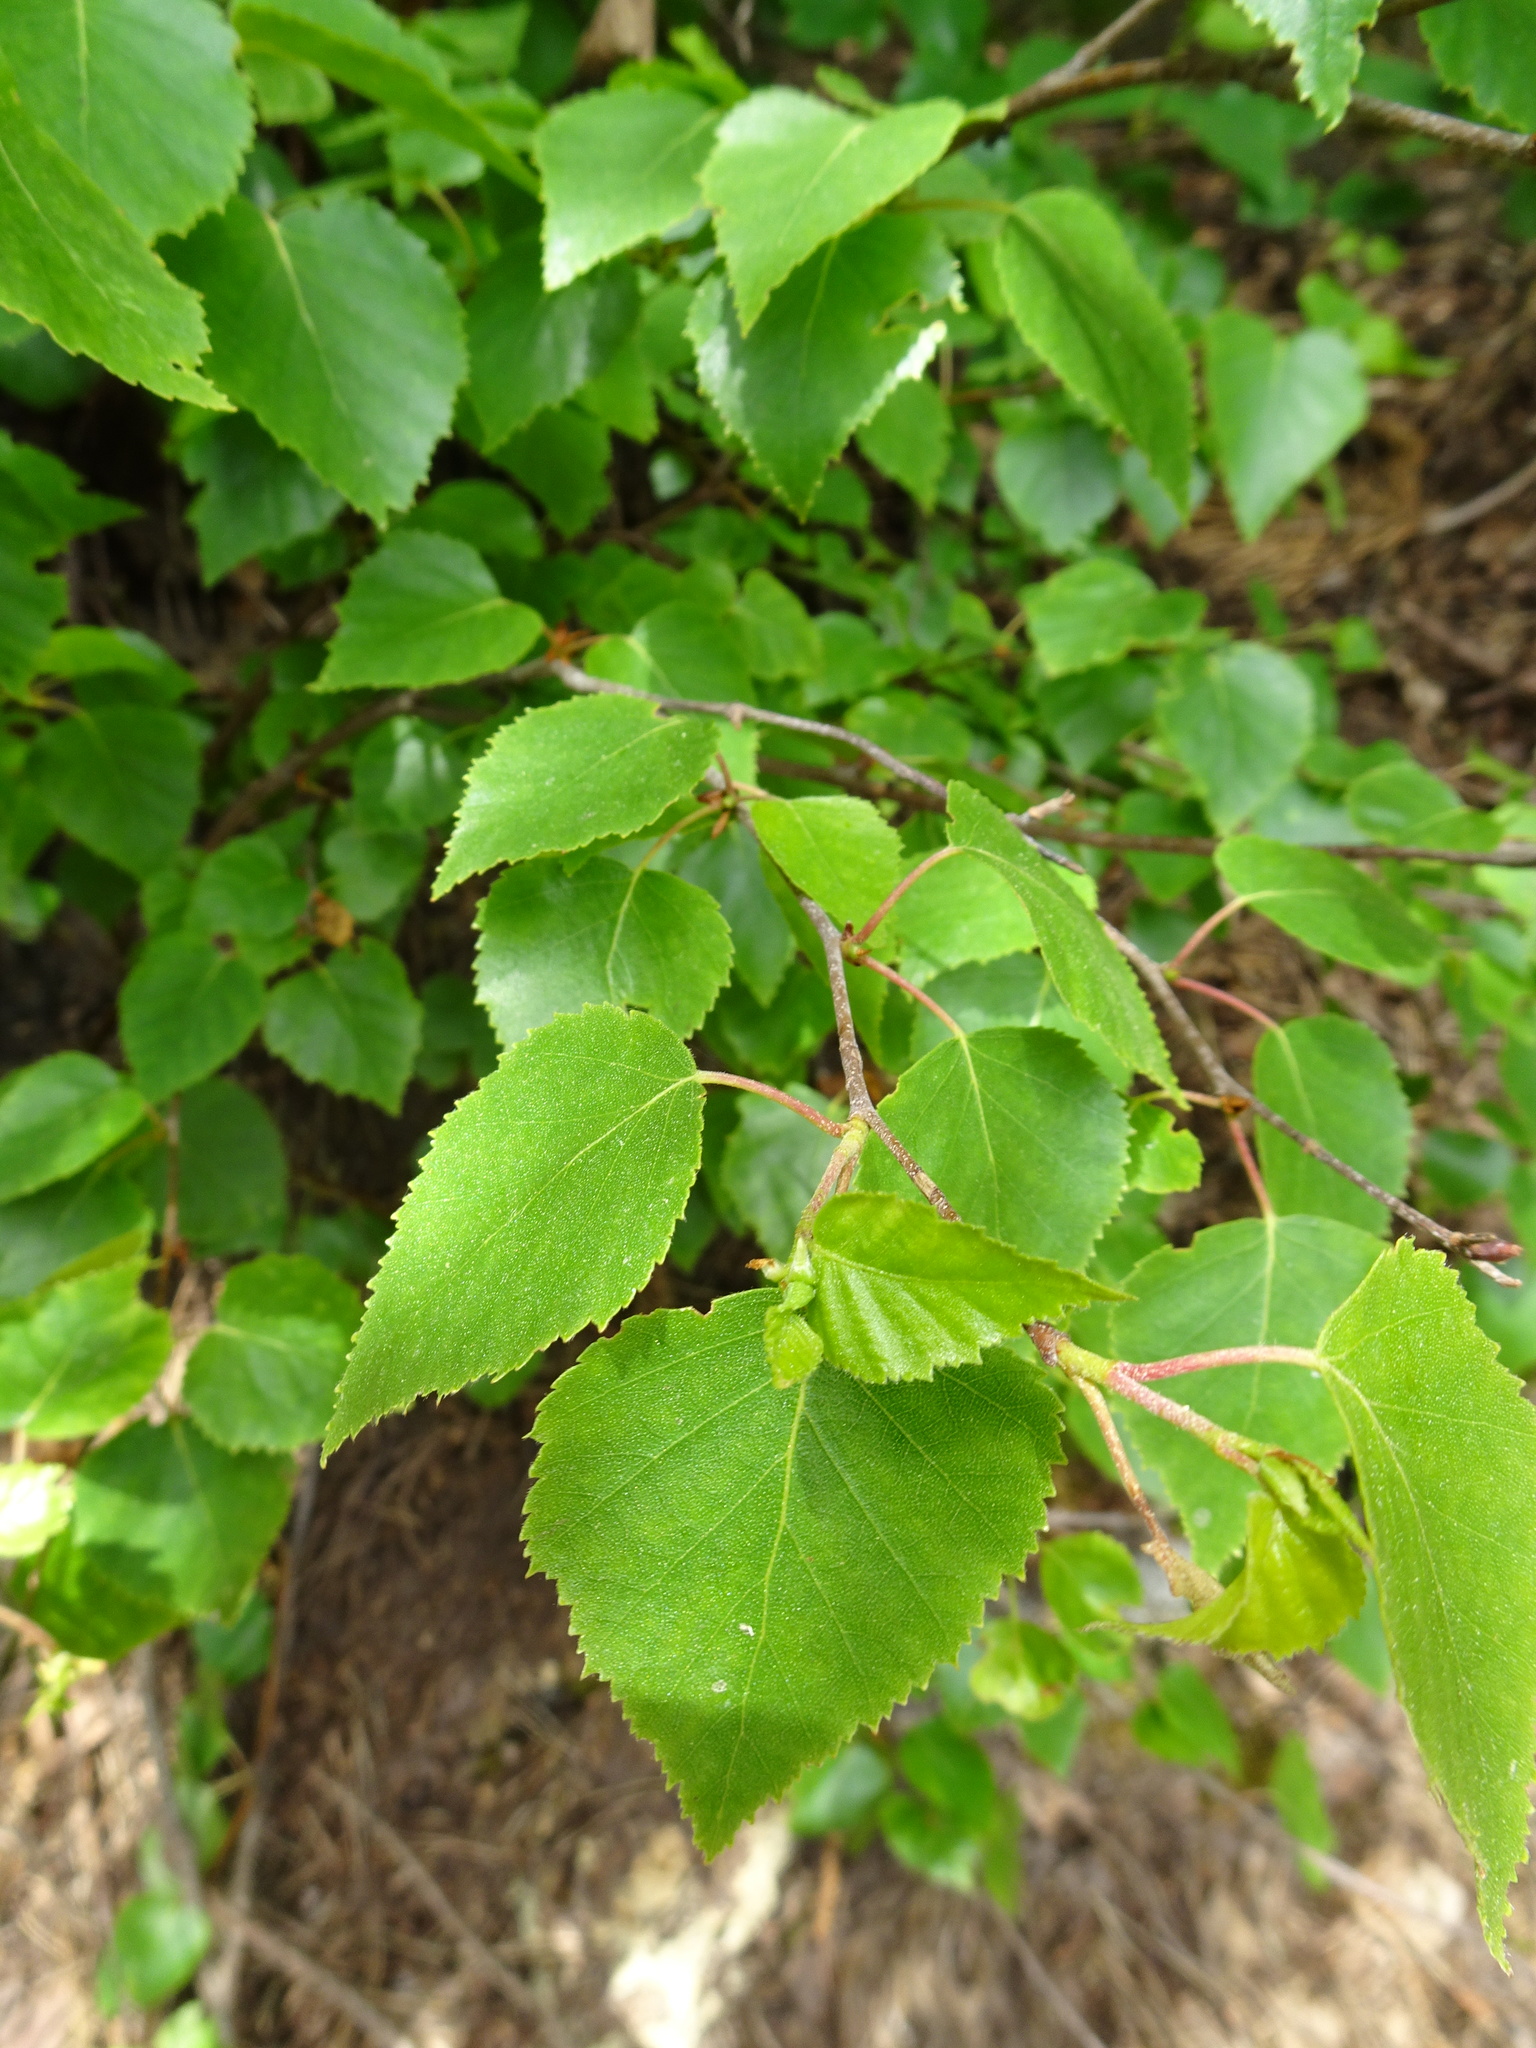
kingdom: Plantae
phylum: Tracheophyta
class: Magnoliopsida
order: Fagales
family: Betulaceae
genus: Betula
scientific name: Betula pendula
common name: Silver birch
